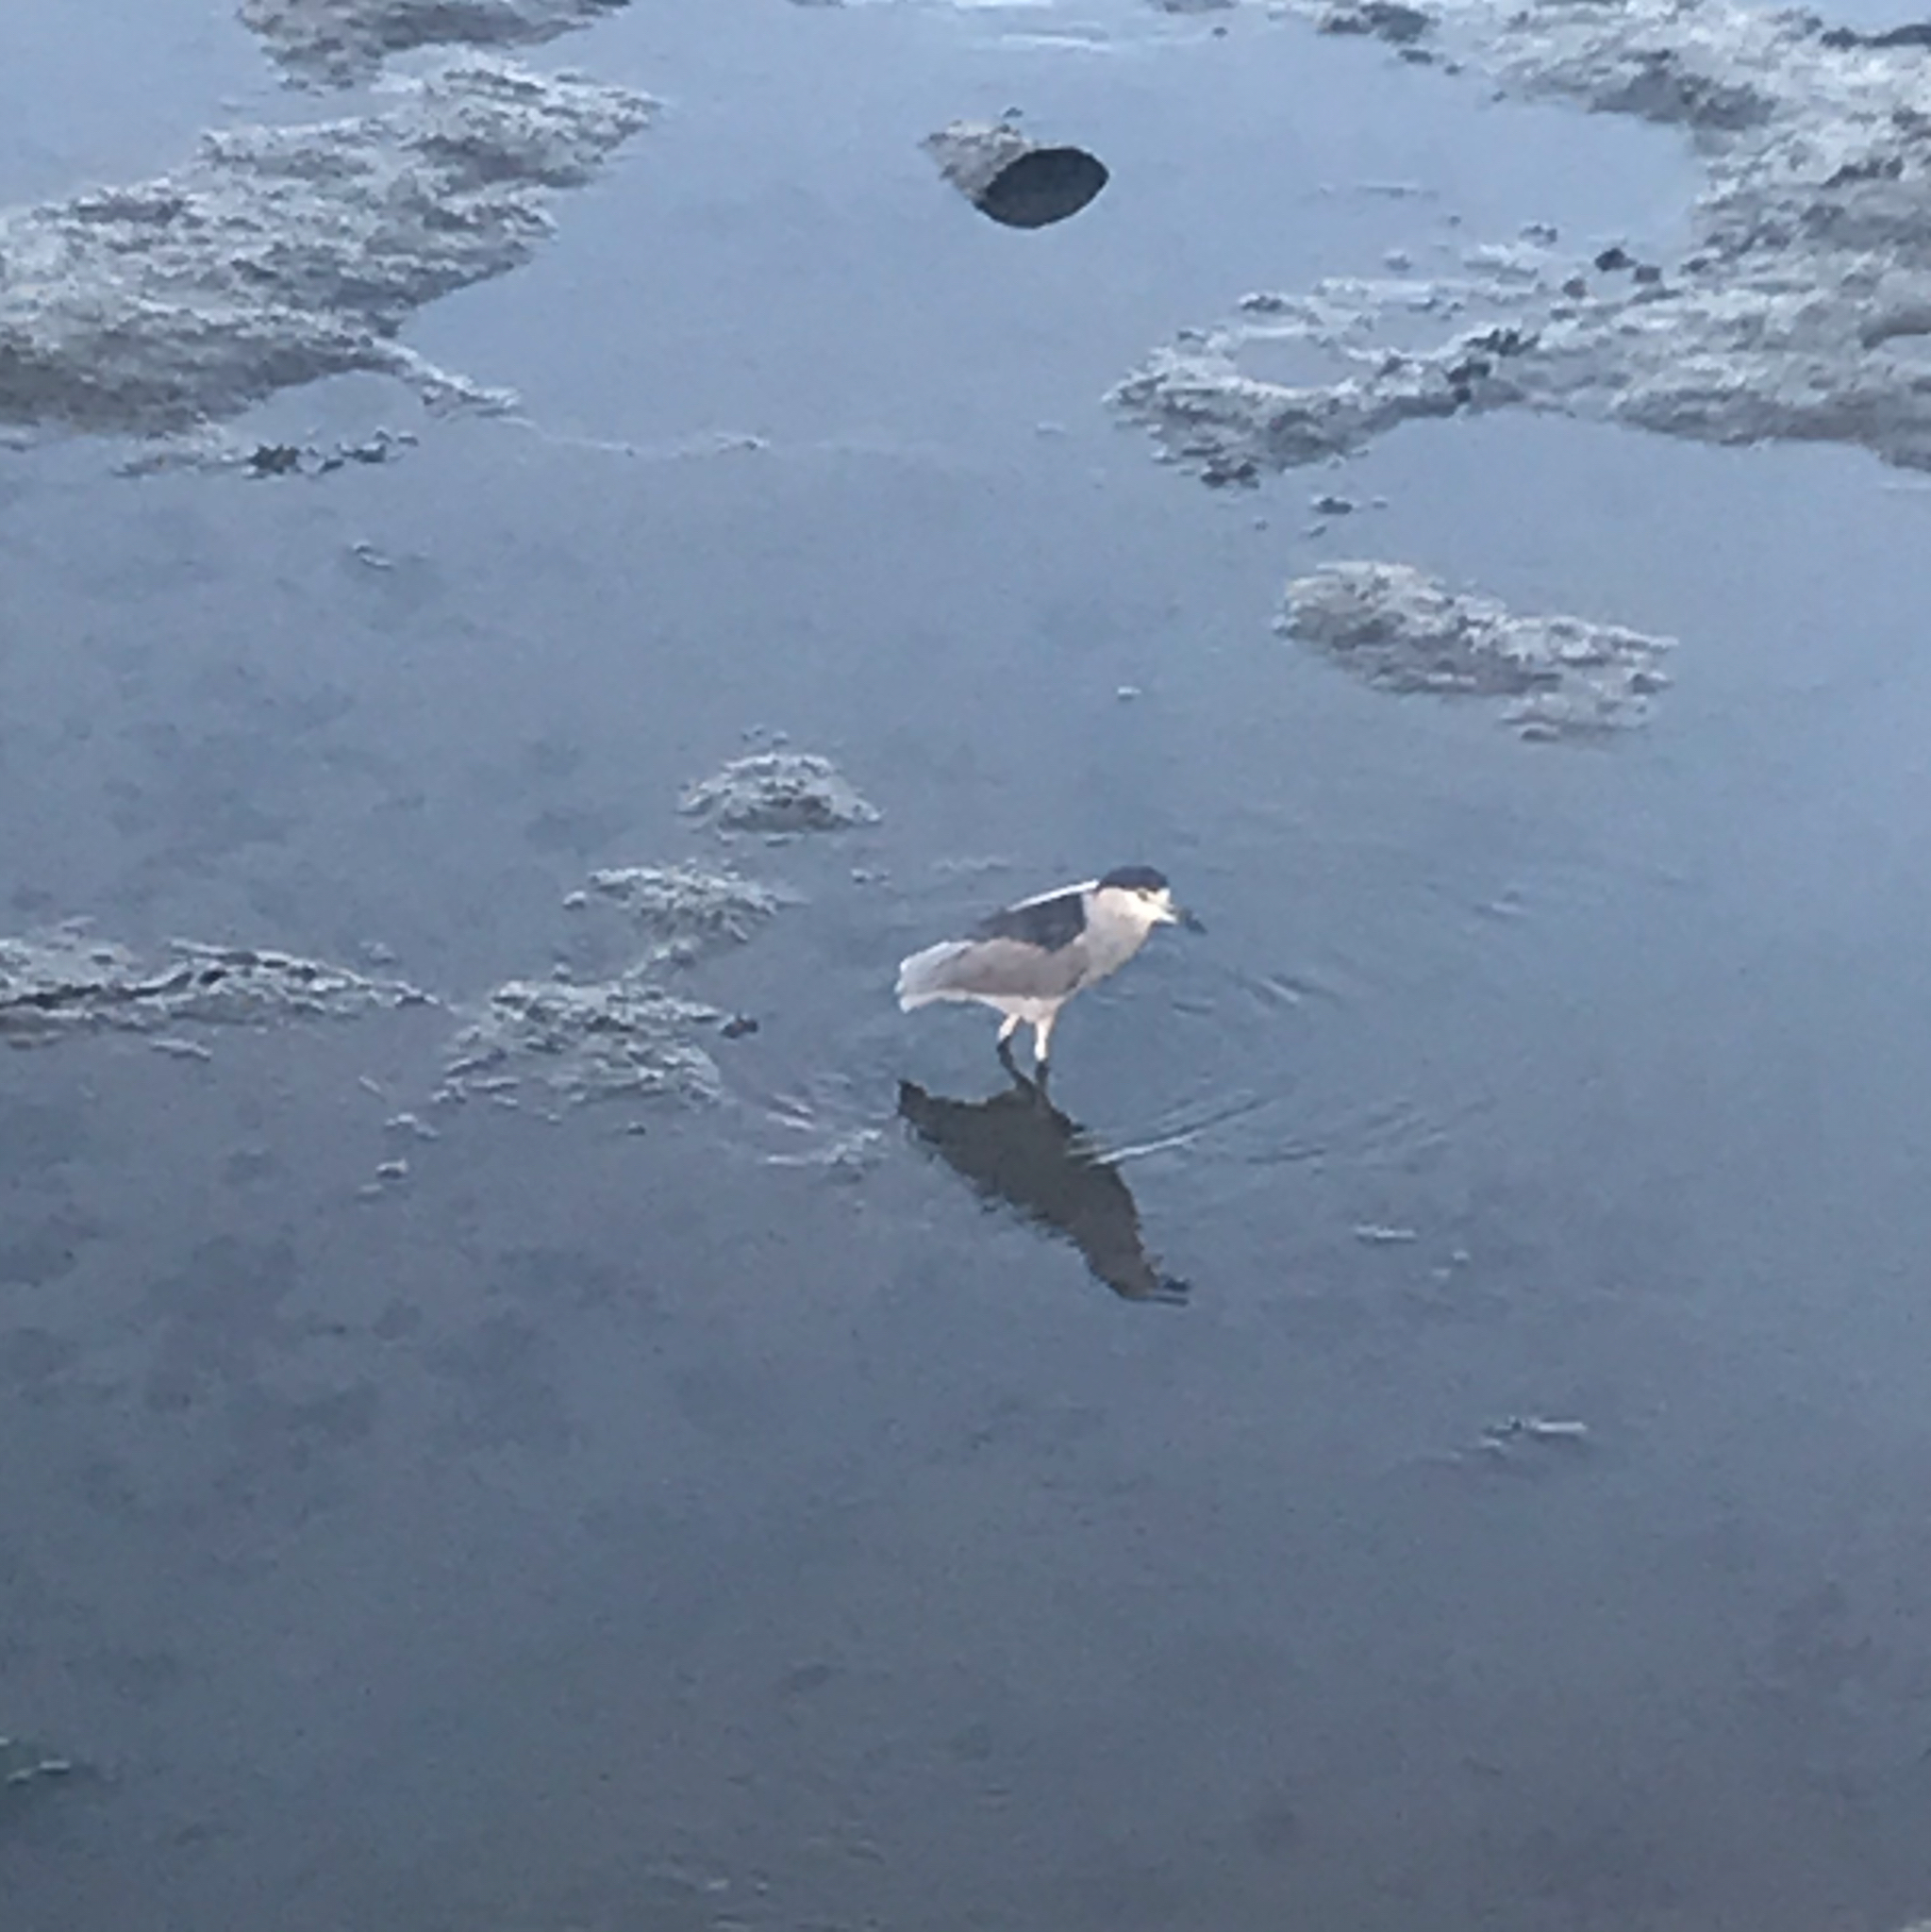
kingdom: Animalia
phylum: Chordata
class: Aves
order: Pelecaniformes
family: Ardeidae
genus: Nycticorax
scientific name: Nycticorax nycticorax
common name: Black-crowned night heron
